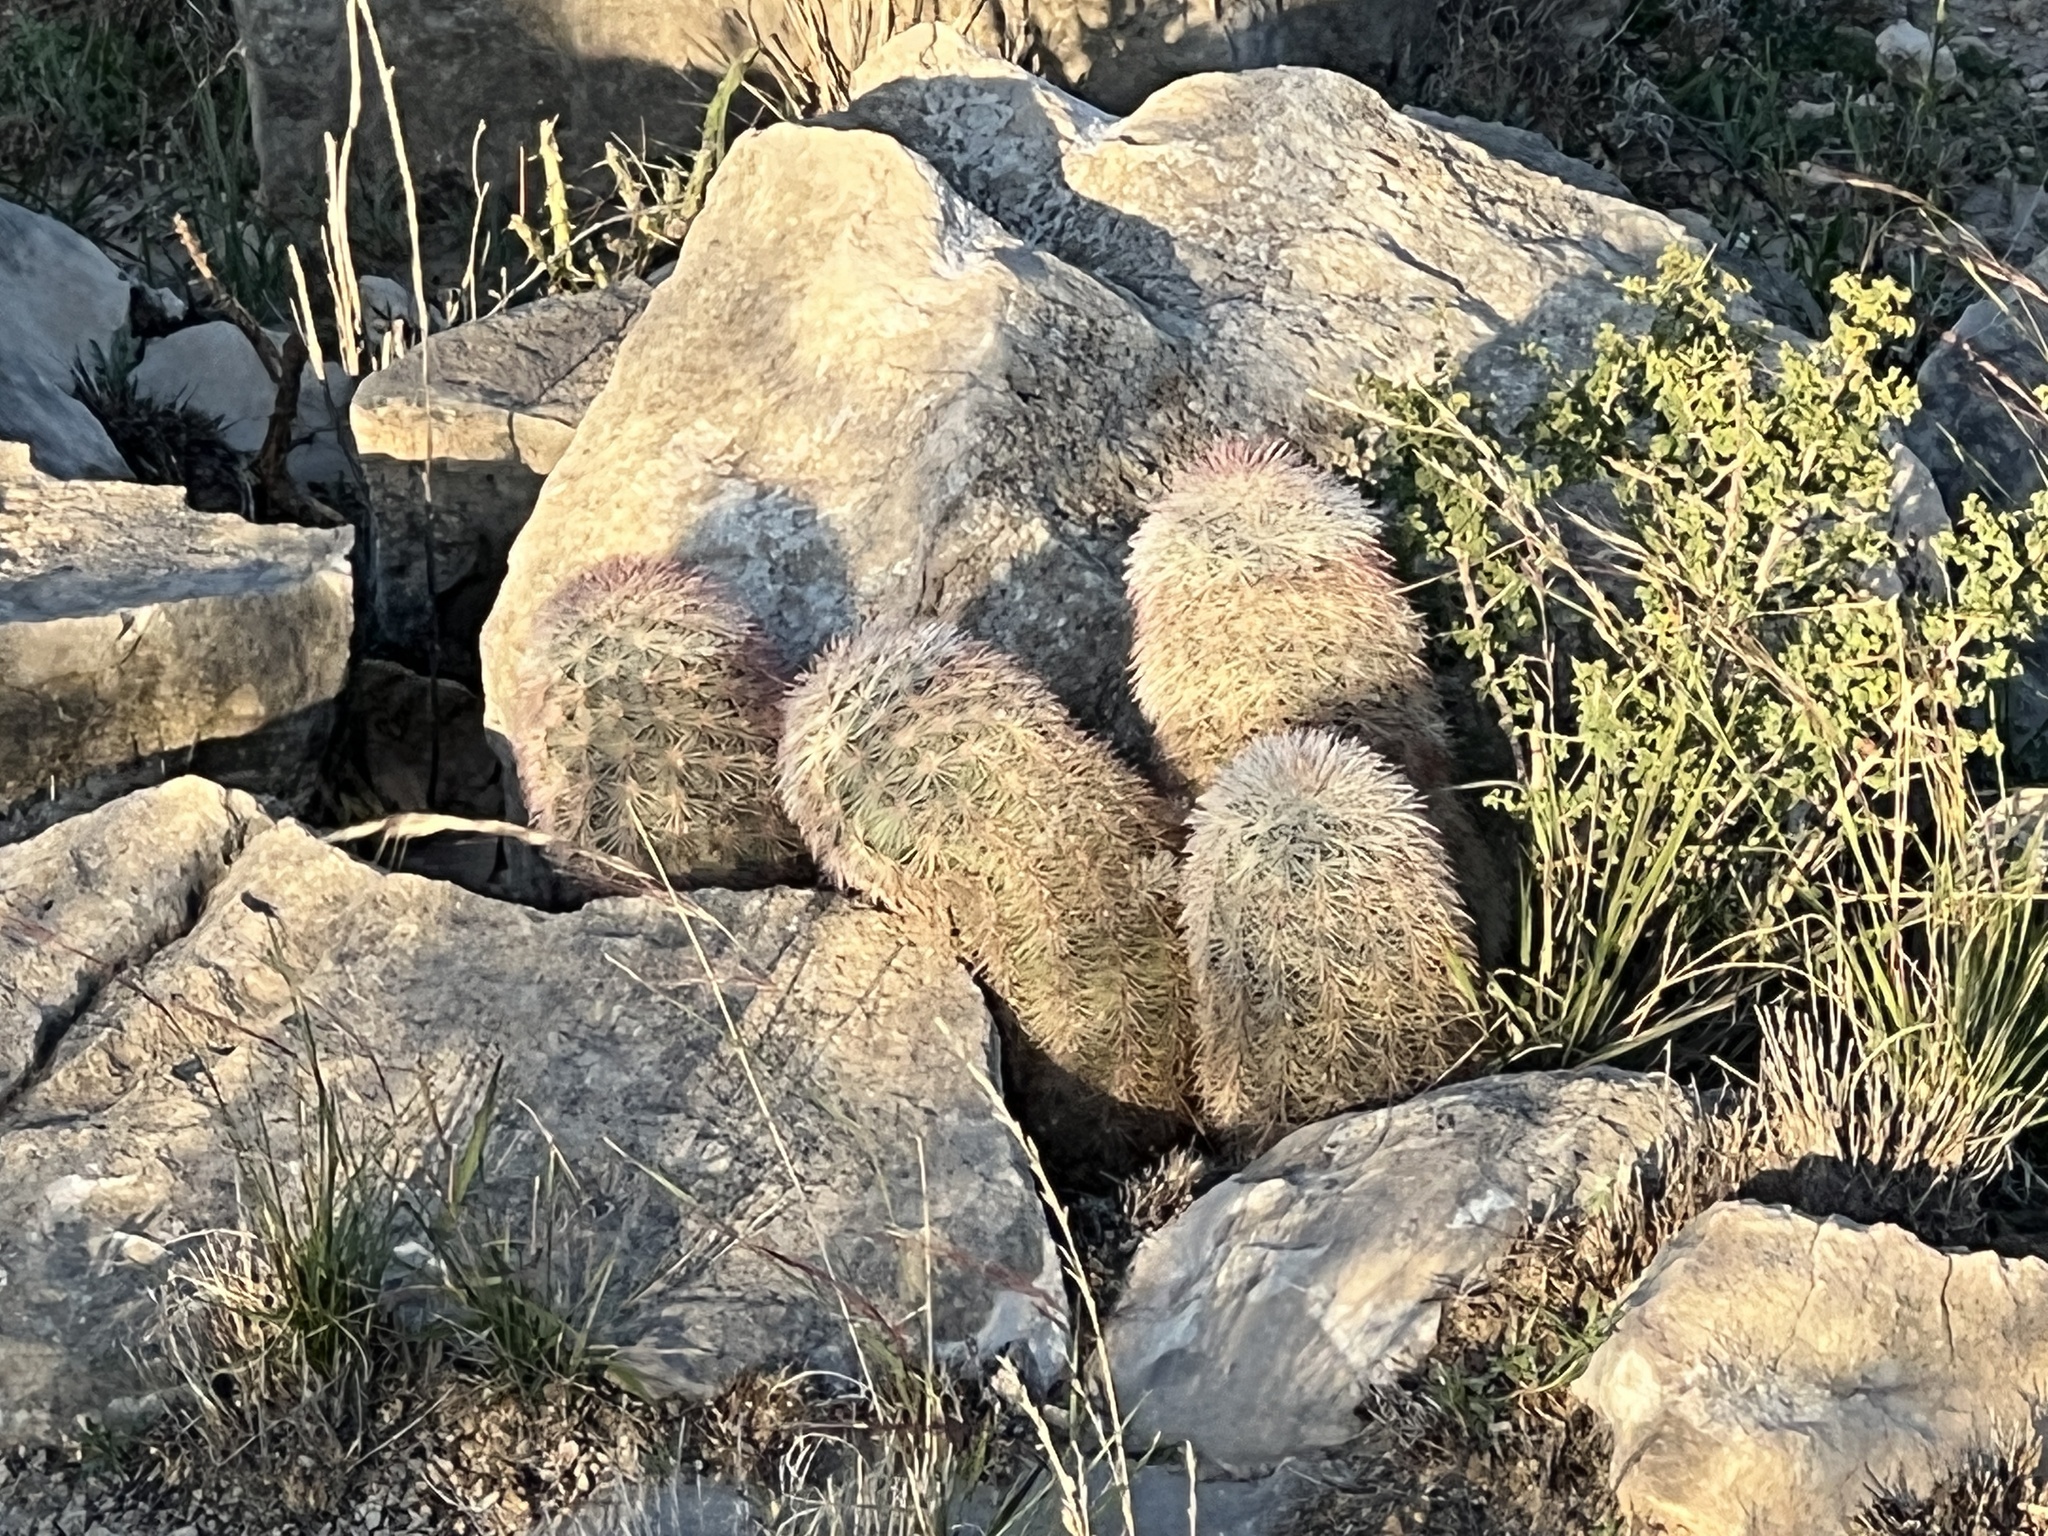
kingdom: Plantae
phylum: Tracheophyta
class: Magnoliopsida
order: Caryophyllales
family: Cactaceae
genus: Echinocereus
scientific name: Echinocereus dasyacanthus
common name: Spiny hedgehog cactus
